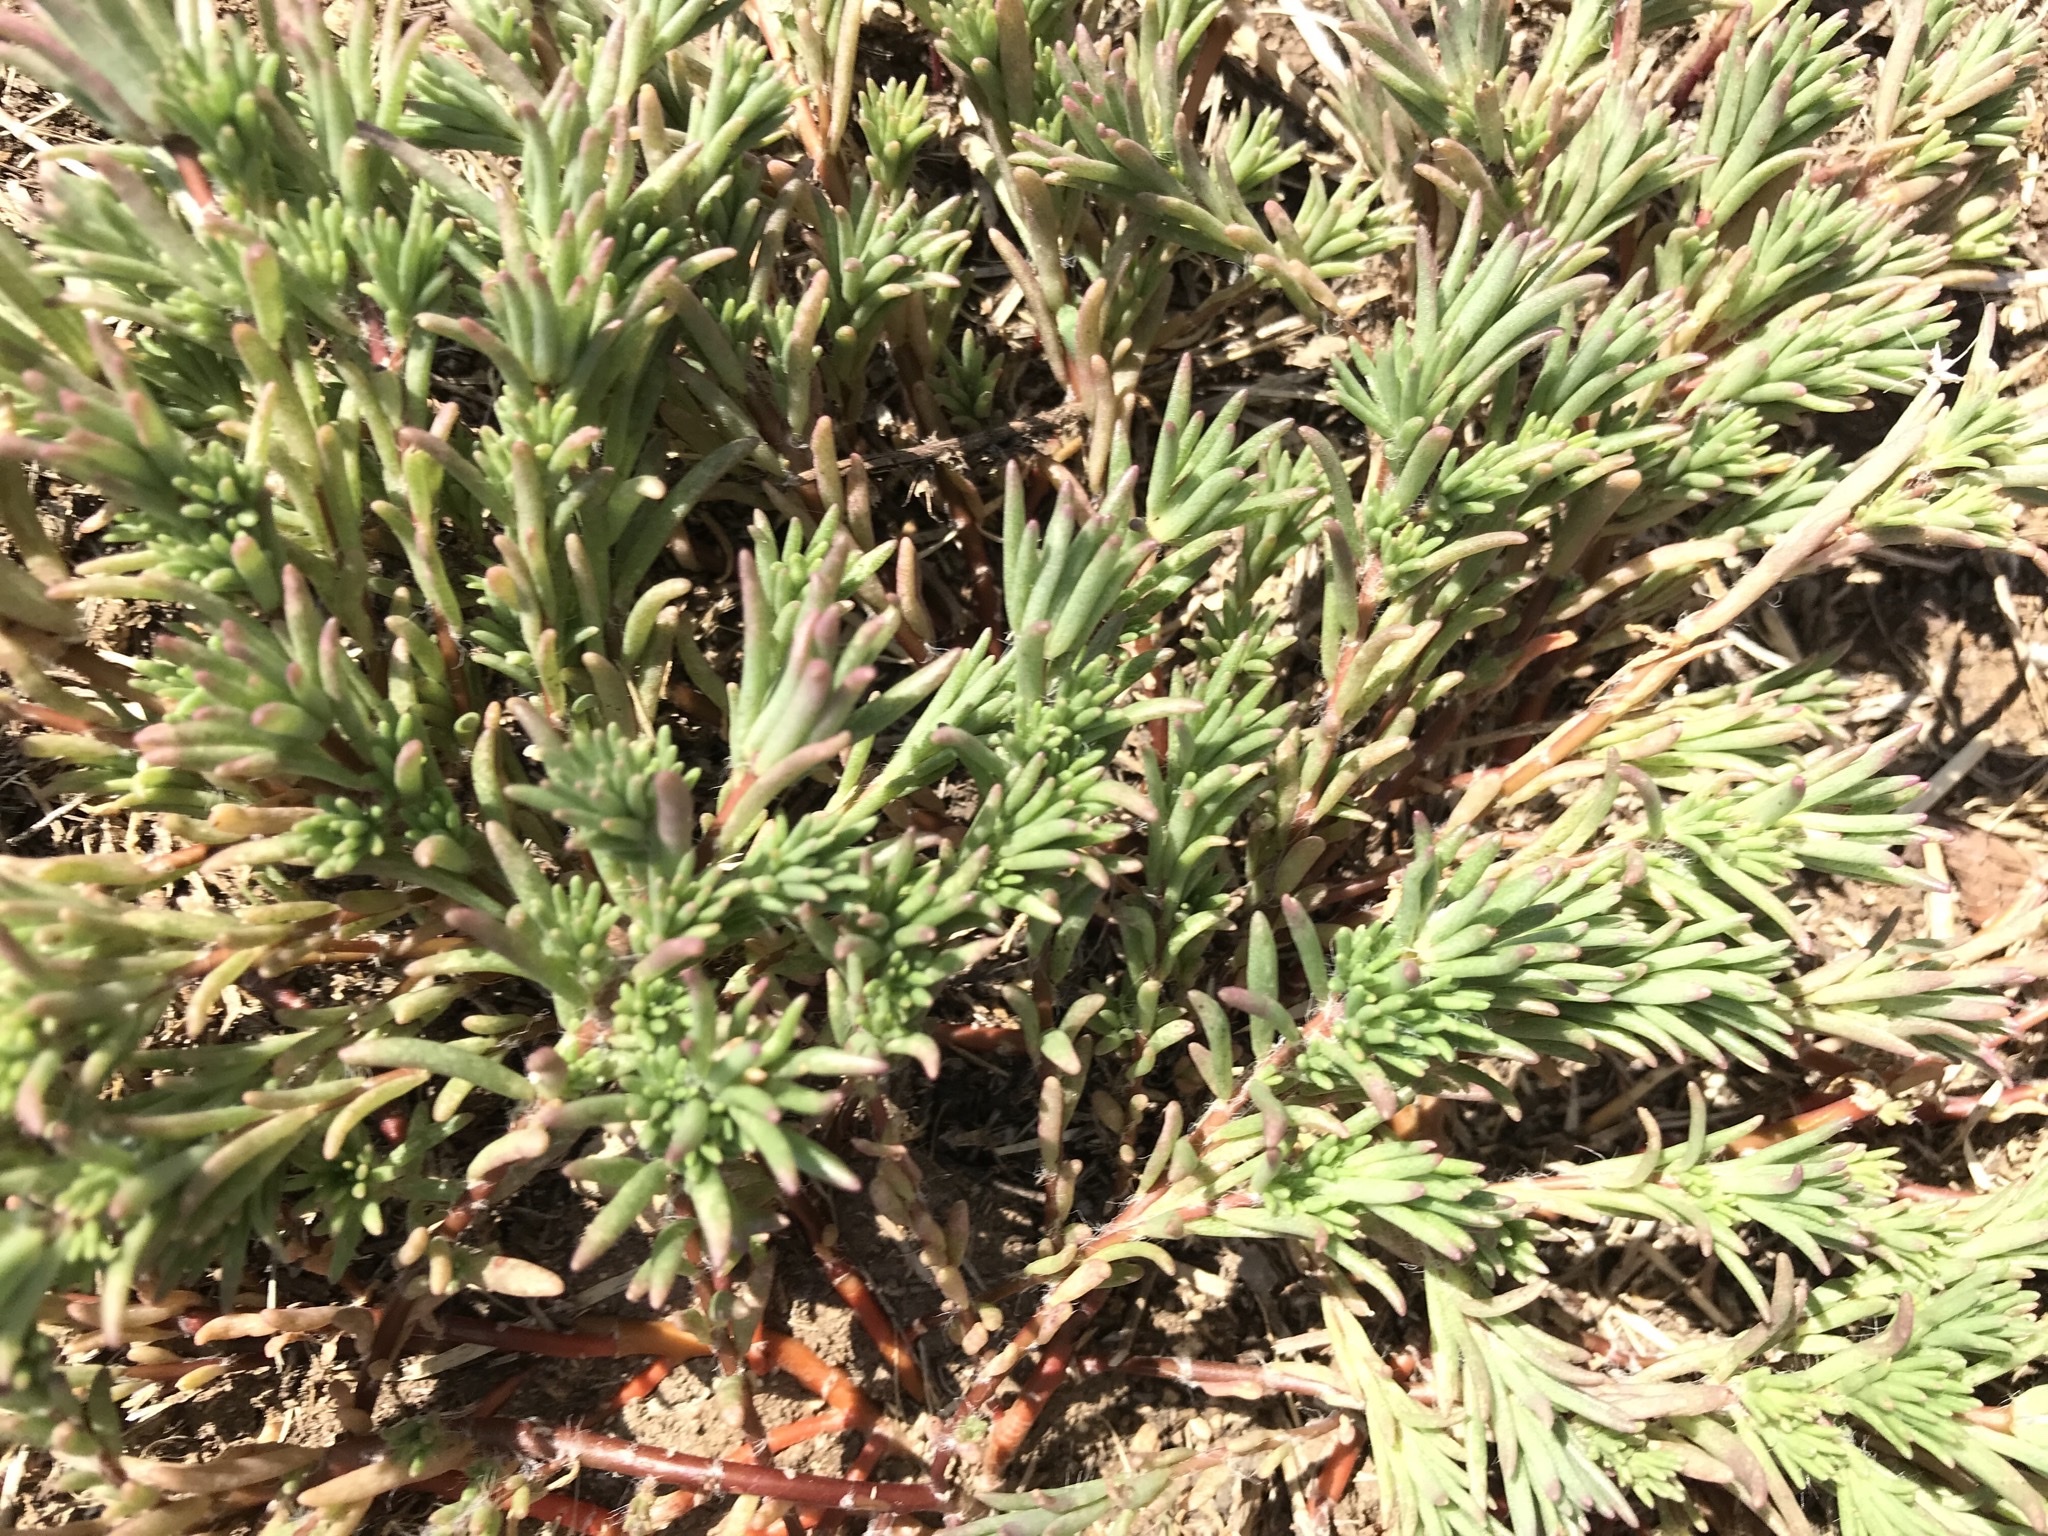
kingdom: Plantae
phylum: Tracheophyta
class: Magnoliopsida
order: Caryophyllales
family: Portulacaceae
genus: Portulaca
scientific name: Portulaca pilosa
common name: Kiss me quick
